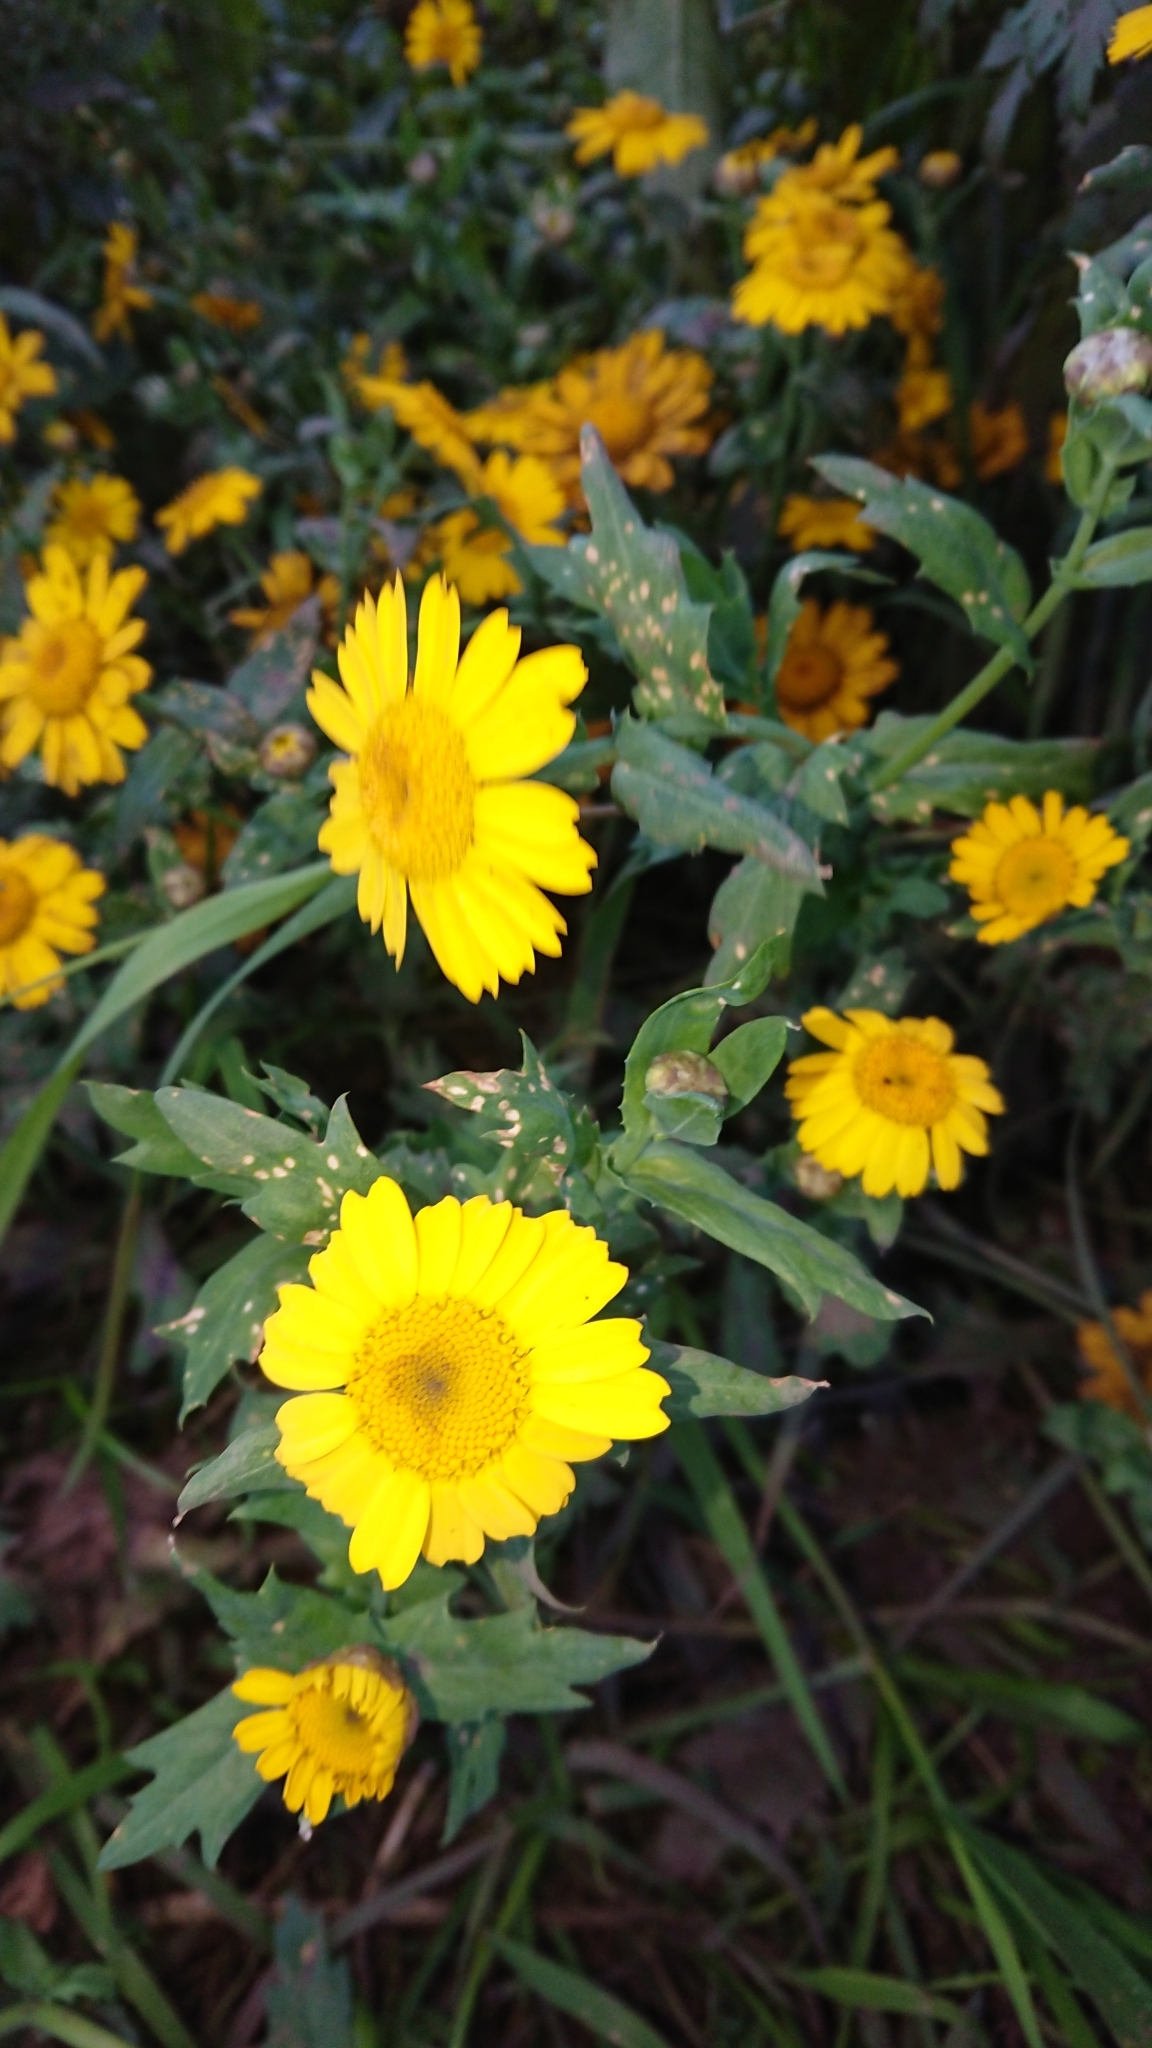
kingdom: Plantae
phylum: Tracheophyta
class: Magnoliopsida
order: Asterales
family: Asteraceae
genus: Glebionis
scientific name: Glebionis segetum
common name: Corndaisy
